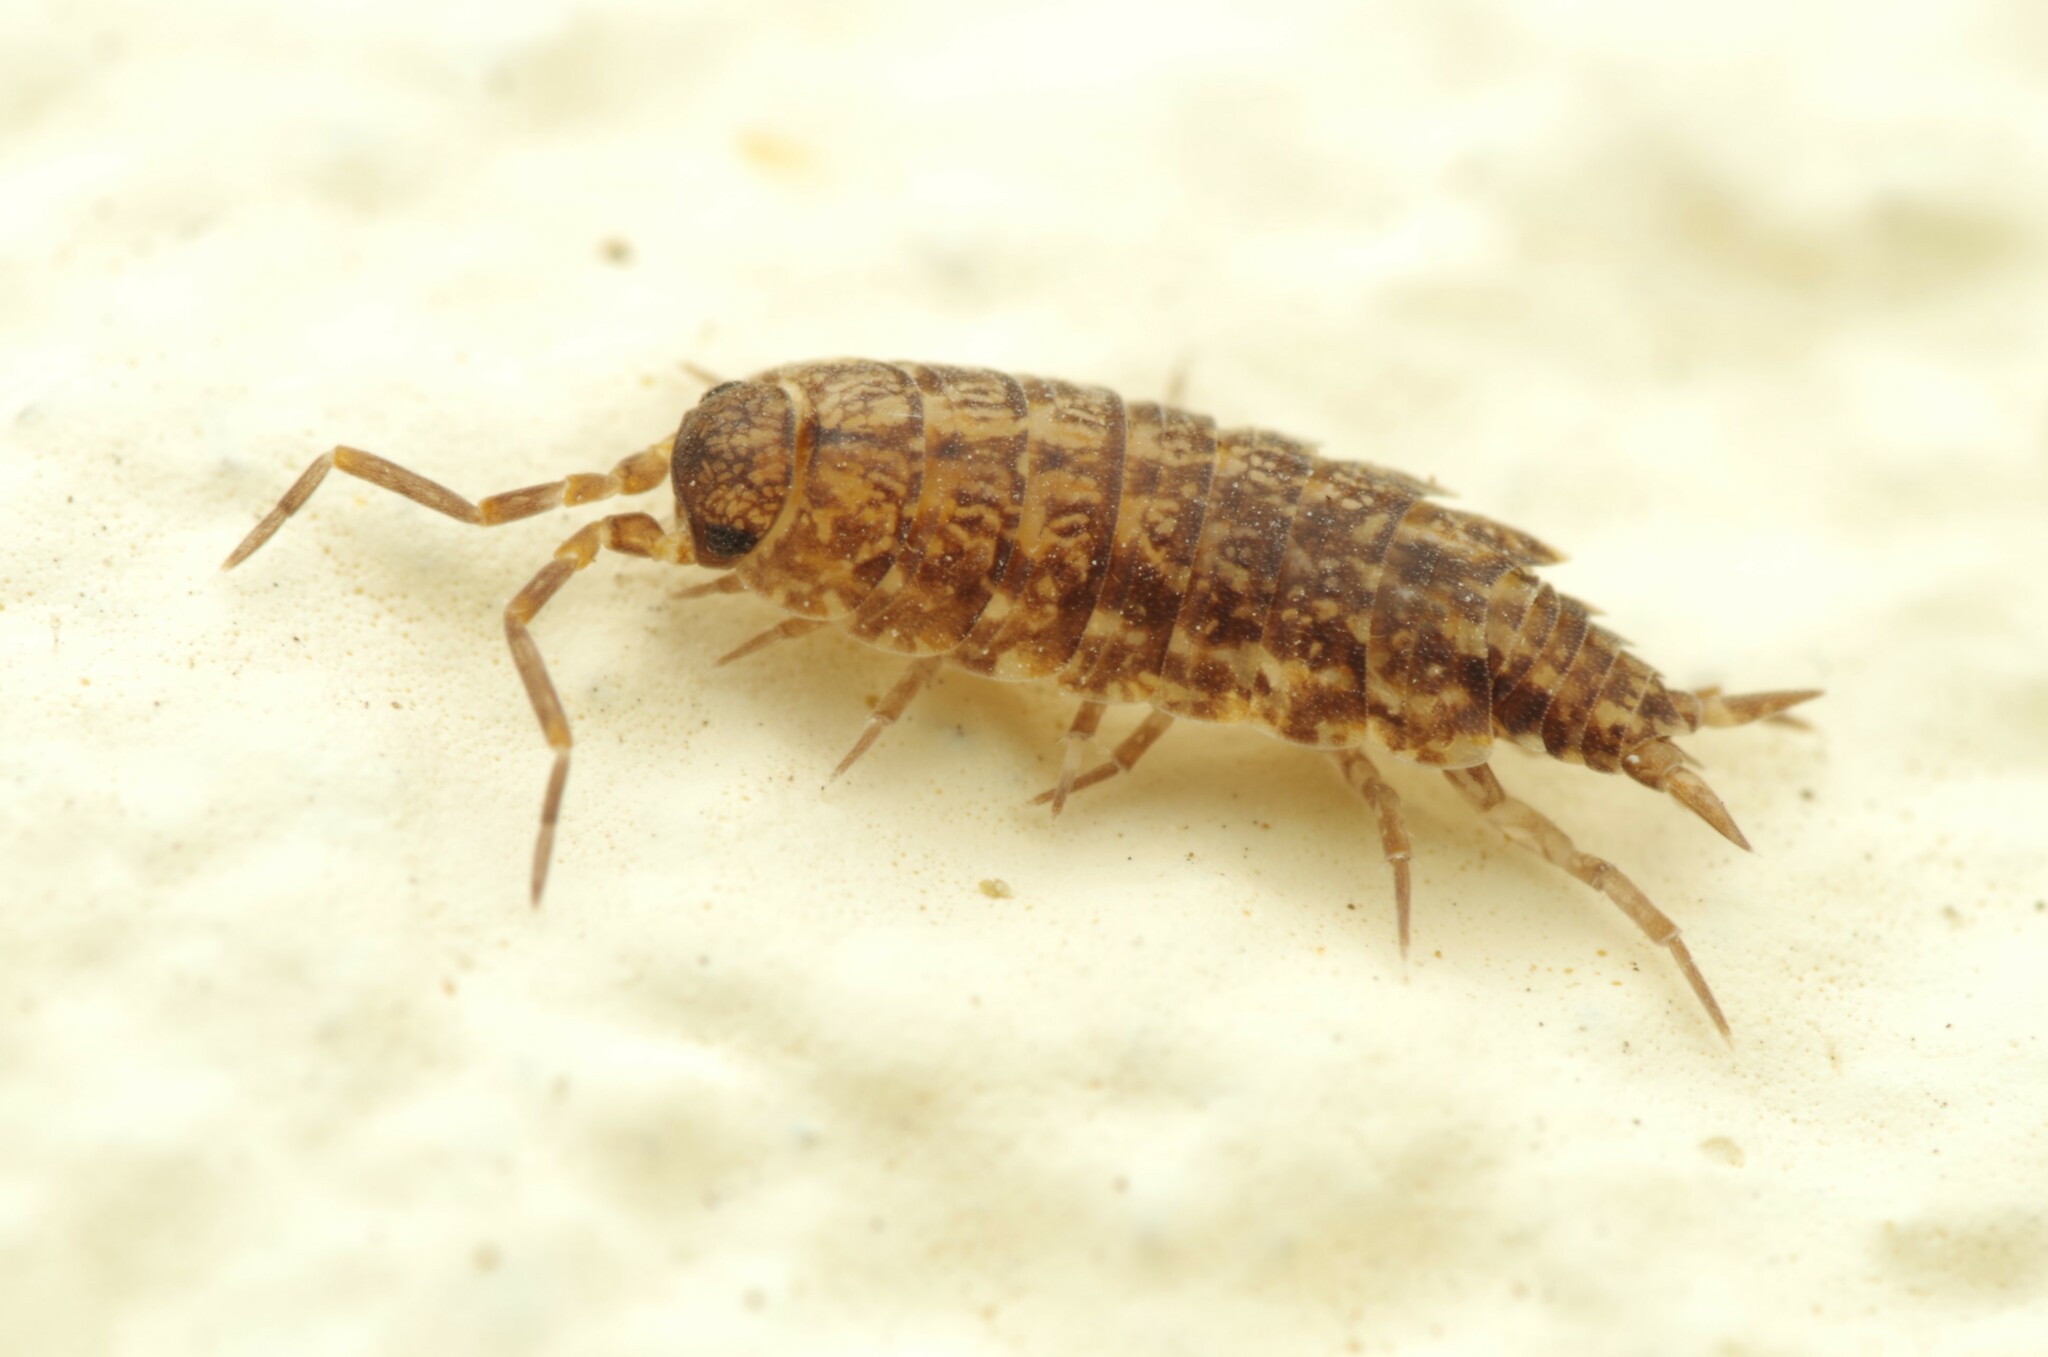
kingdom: Animalia
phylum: Arthropoda
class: Malacostraca
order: Isopoda
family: Porcellionidae
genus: Porcellionides
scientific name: Porcellionides cingendus
